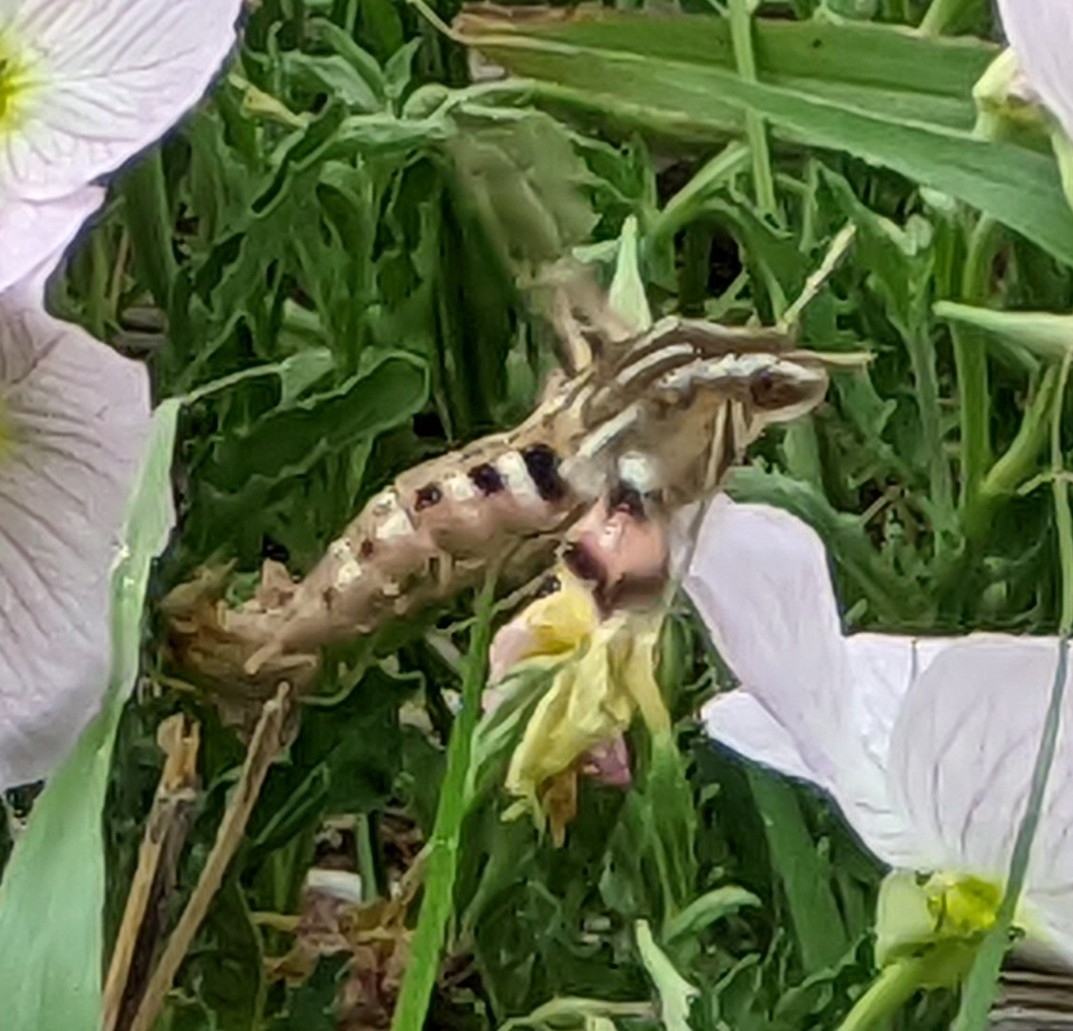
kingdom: Animalia
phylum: Arthropoda
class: Insecta
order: Lepidoptera
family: Sphingidae
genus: Hyles
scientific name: Hyles lineata
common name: White-lined sphinx
